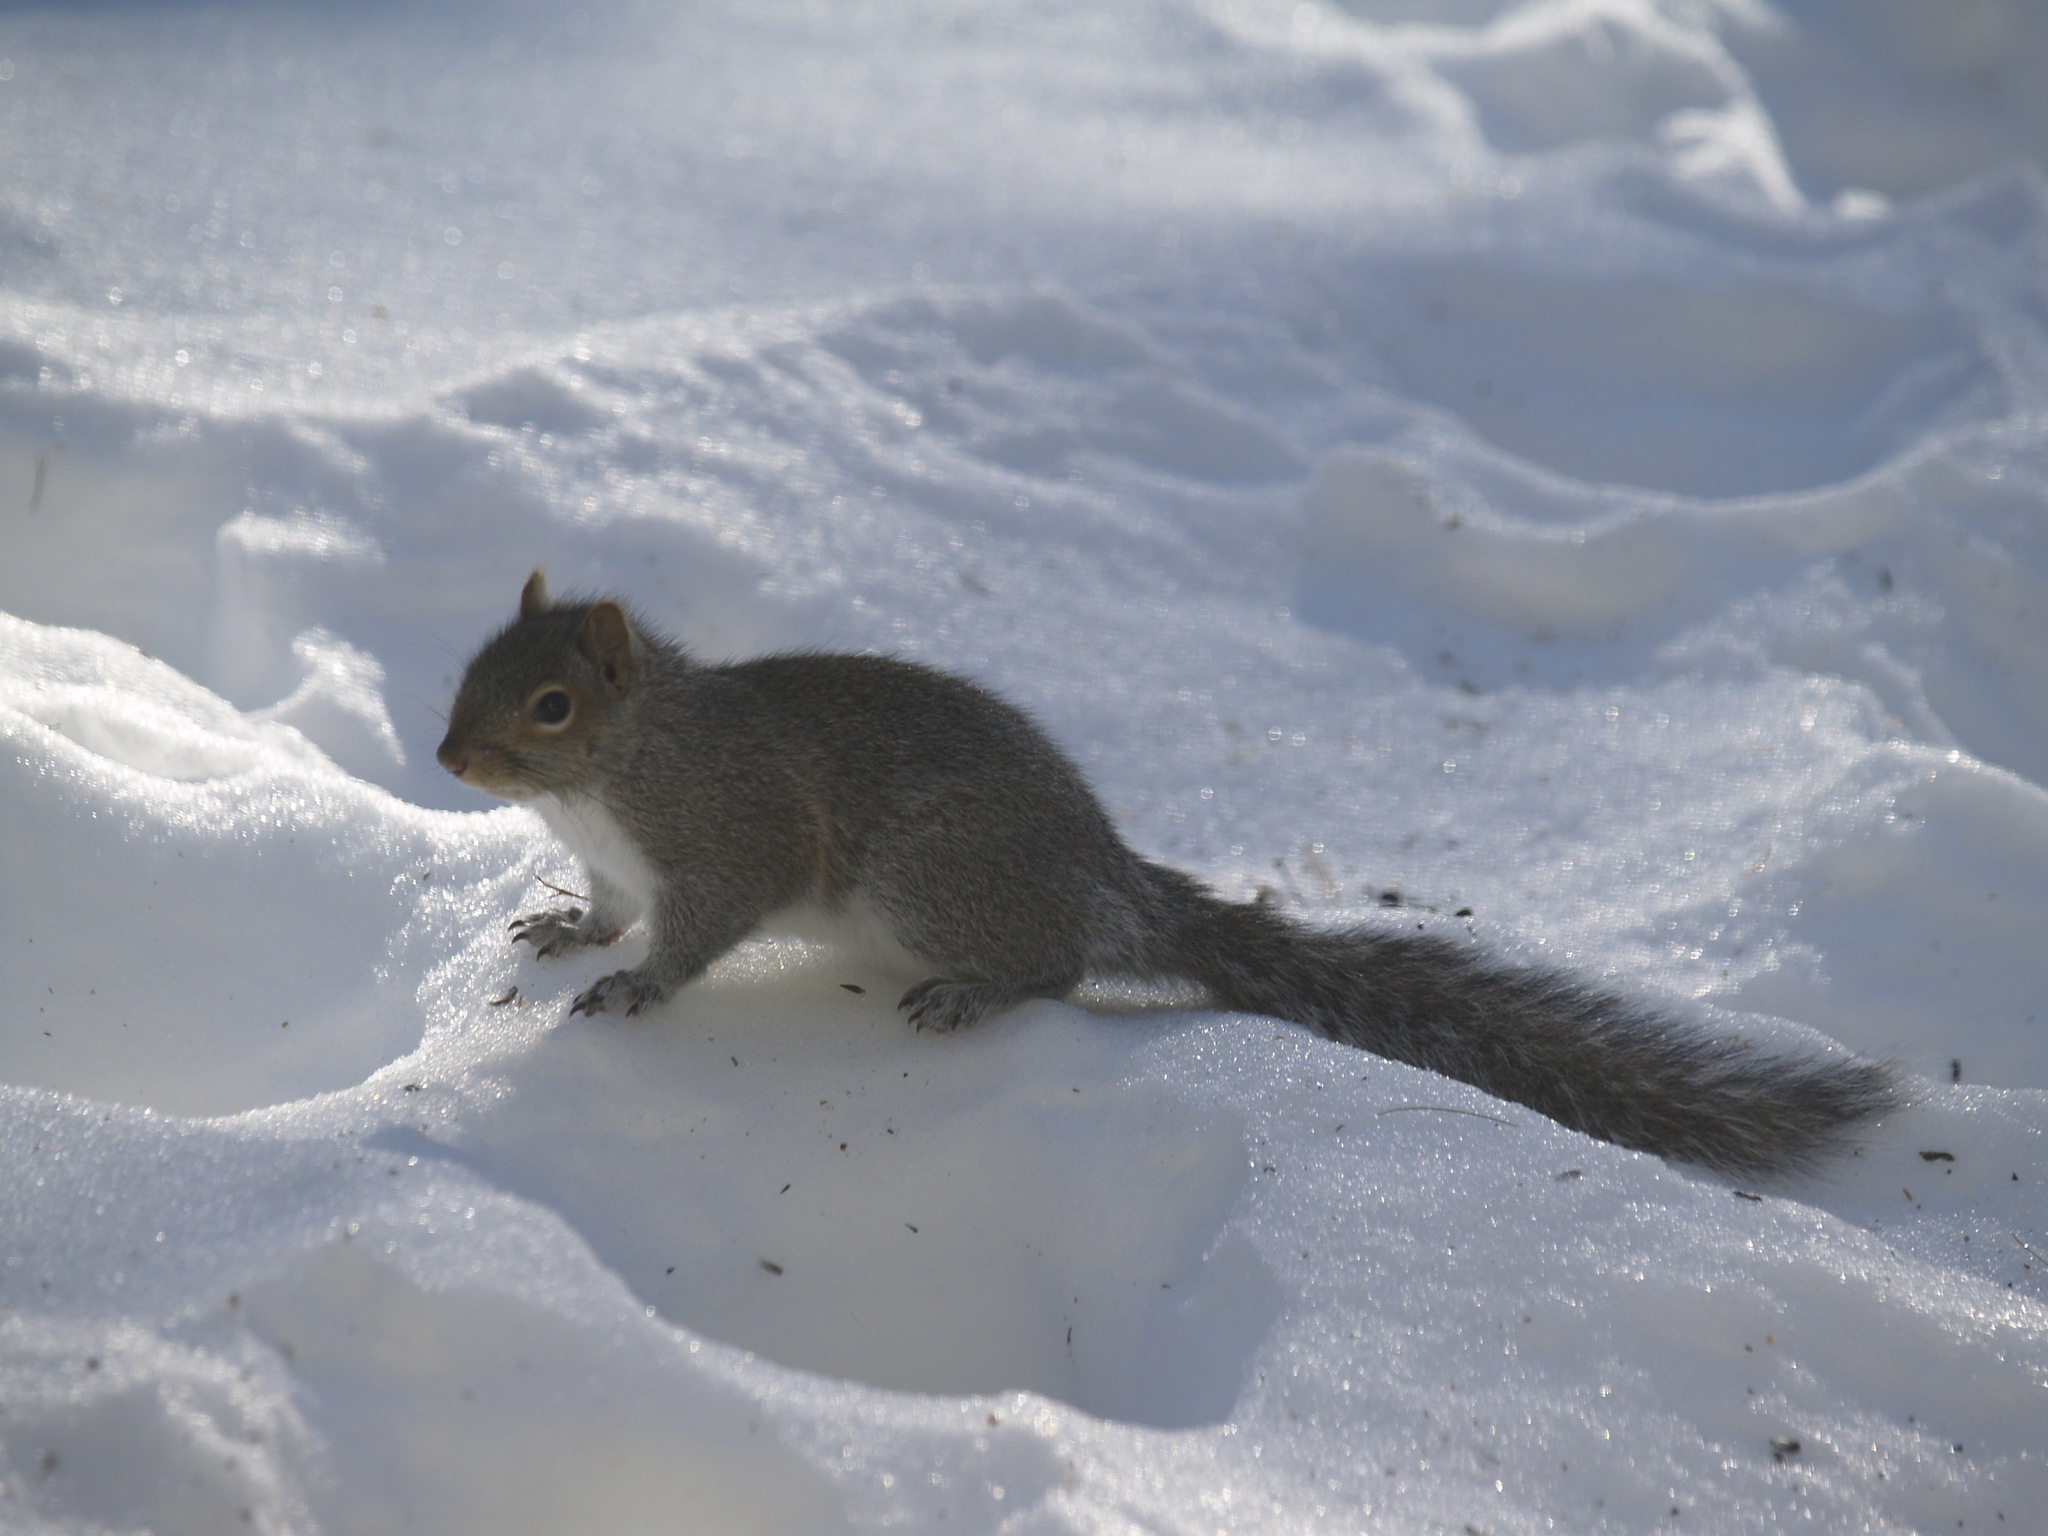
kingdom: Animalia
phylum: Chordata
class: Mammalia
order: Rodentia
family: Sciuridae
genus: Sciurus
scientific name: Sciurus carolinensis
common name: Eastern gray squirrel
